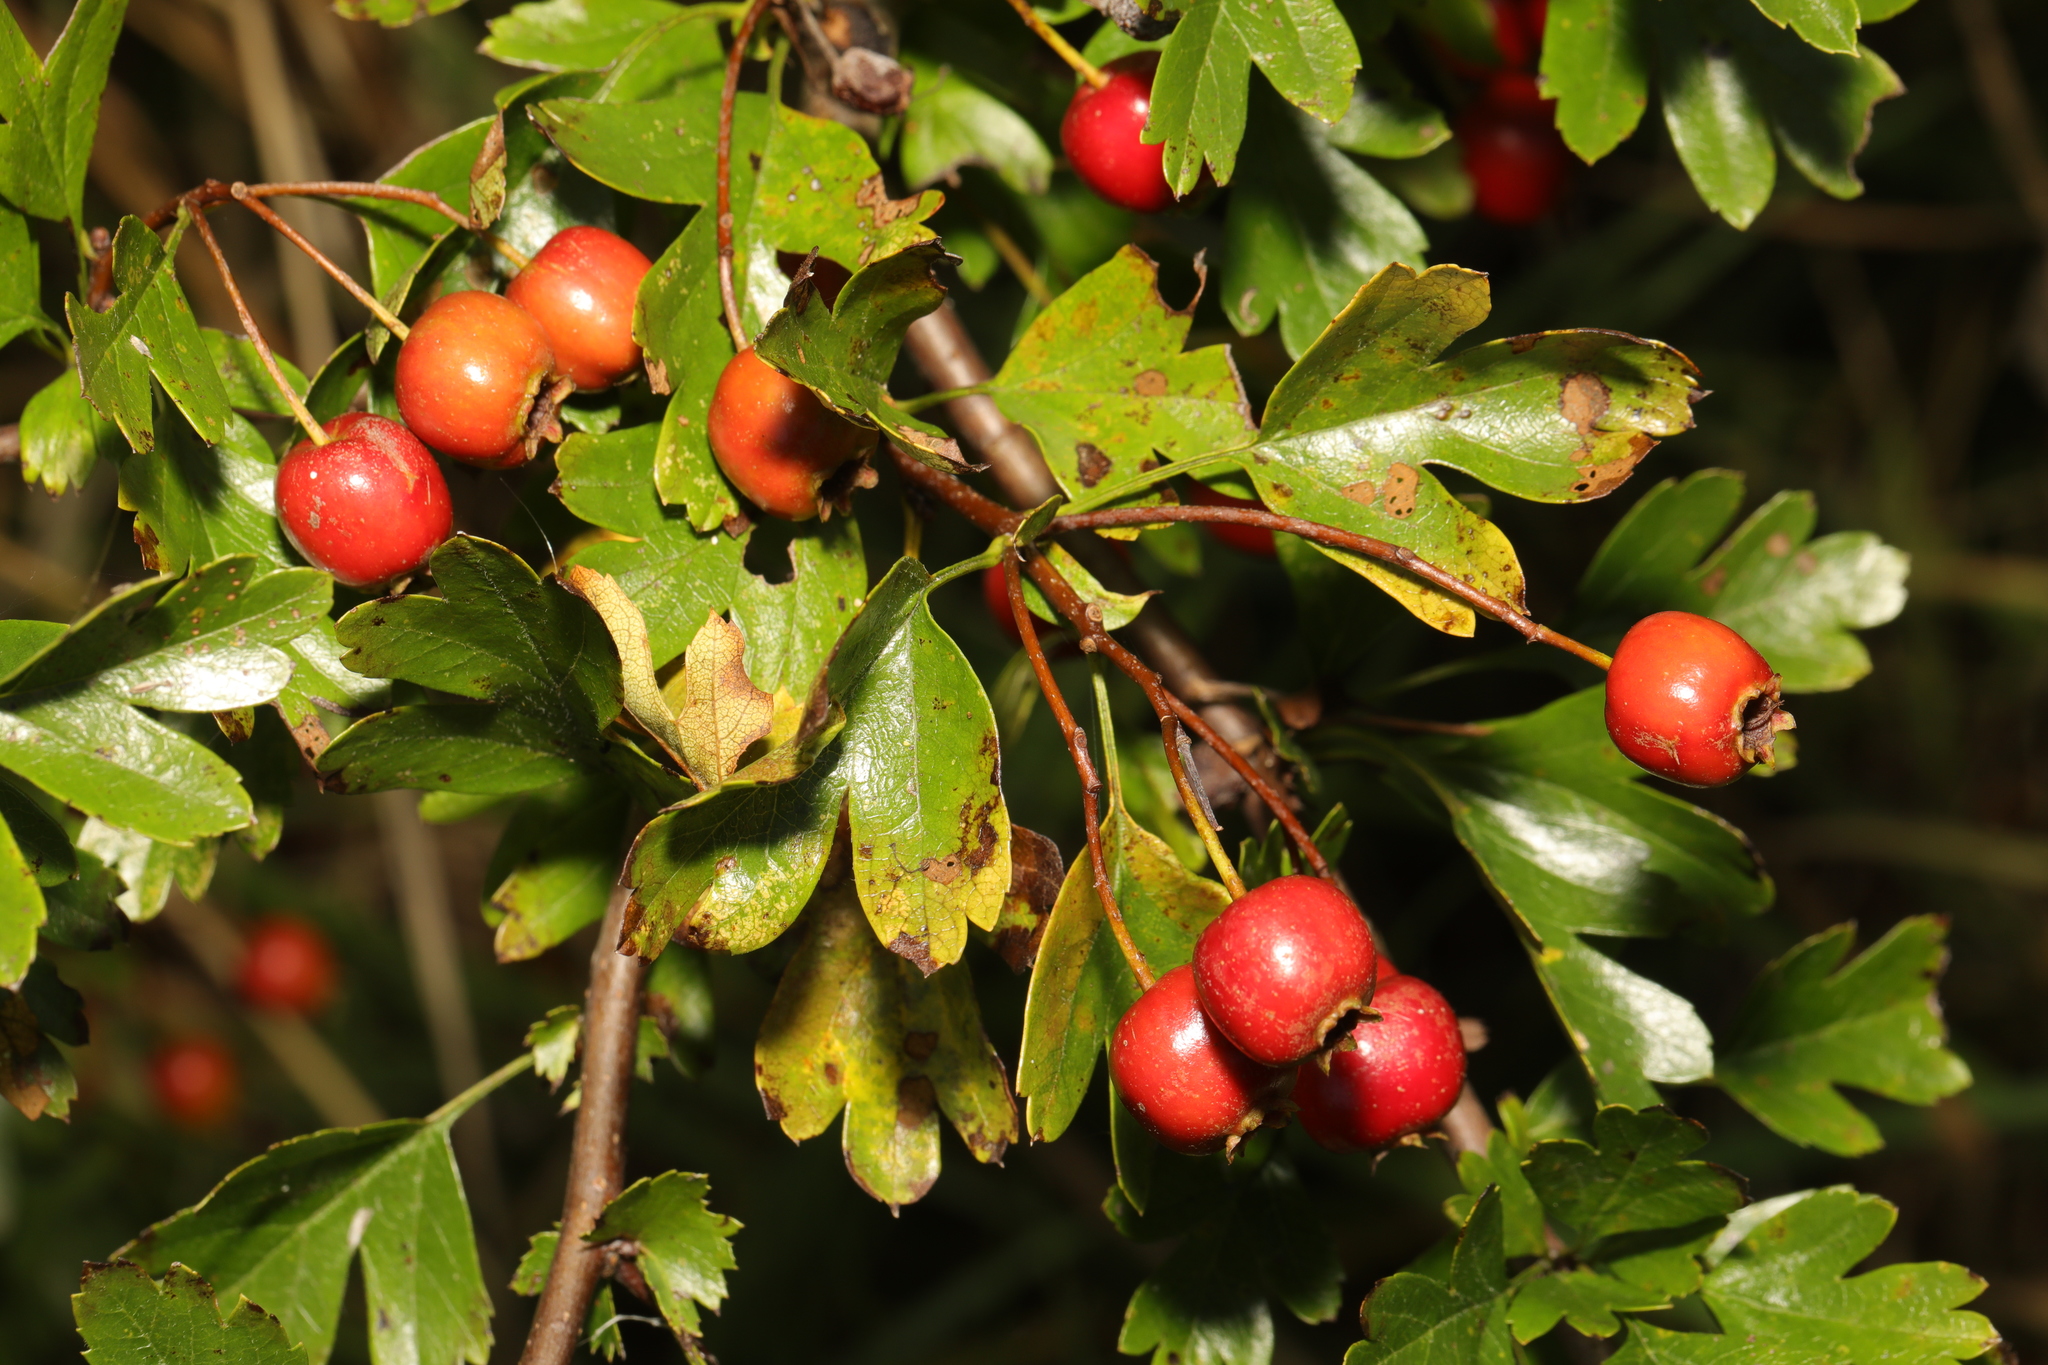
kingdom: Plantae
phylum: Tracheophyta
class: Magnoliopsida
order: Rosales
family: Rosaceae
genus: Crataegus
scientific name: Crataegus monogyna
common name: Hawthorn
